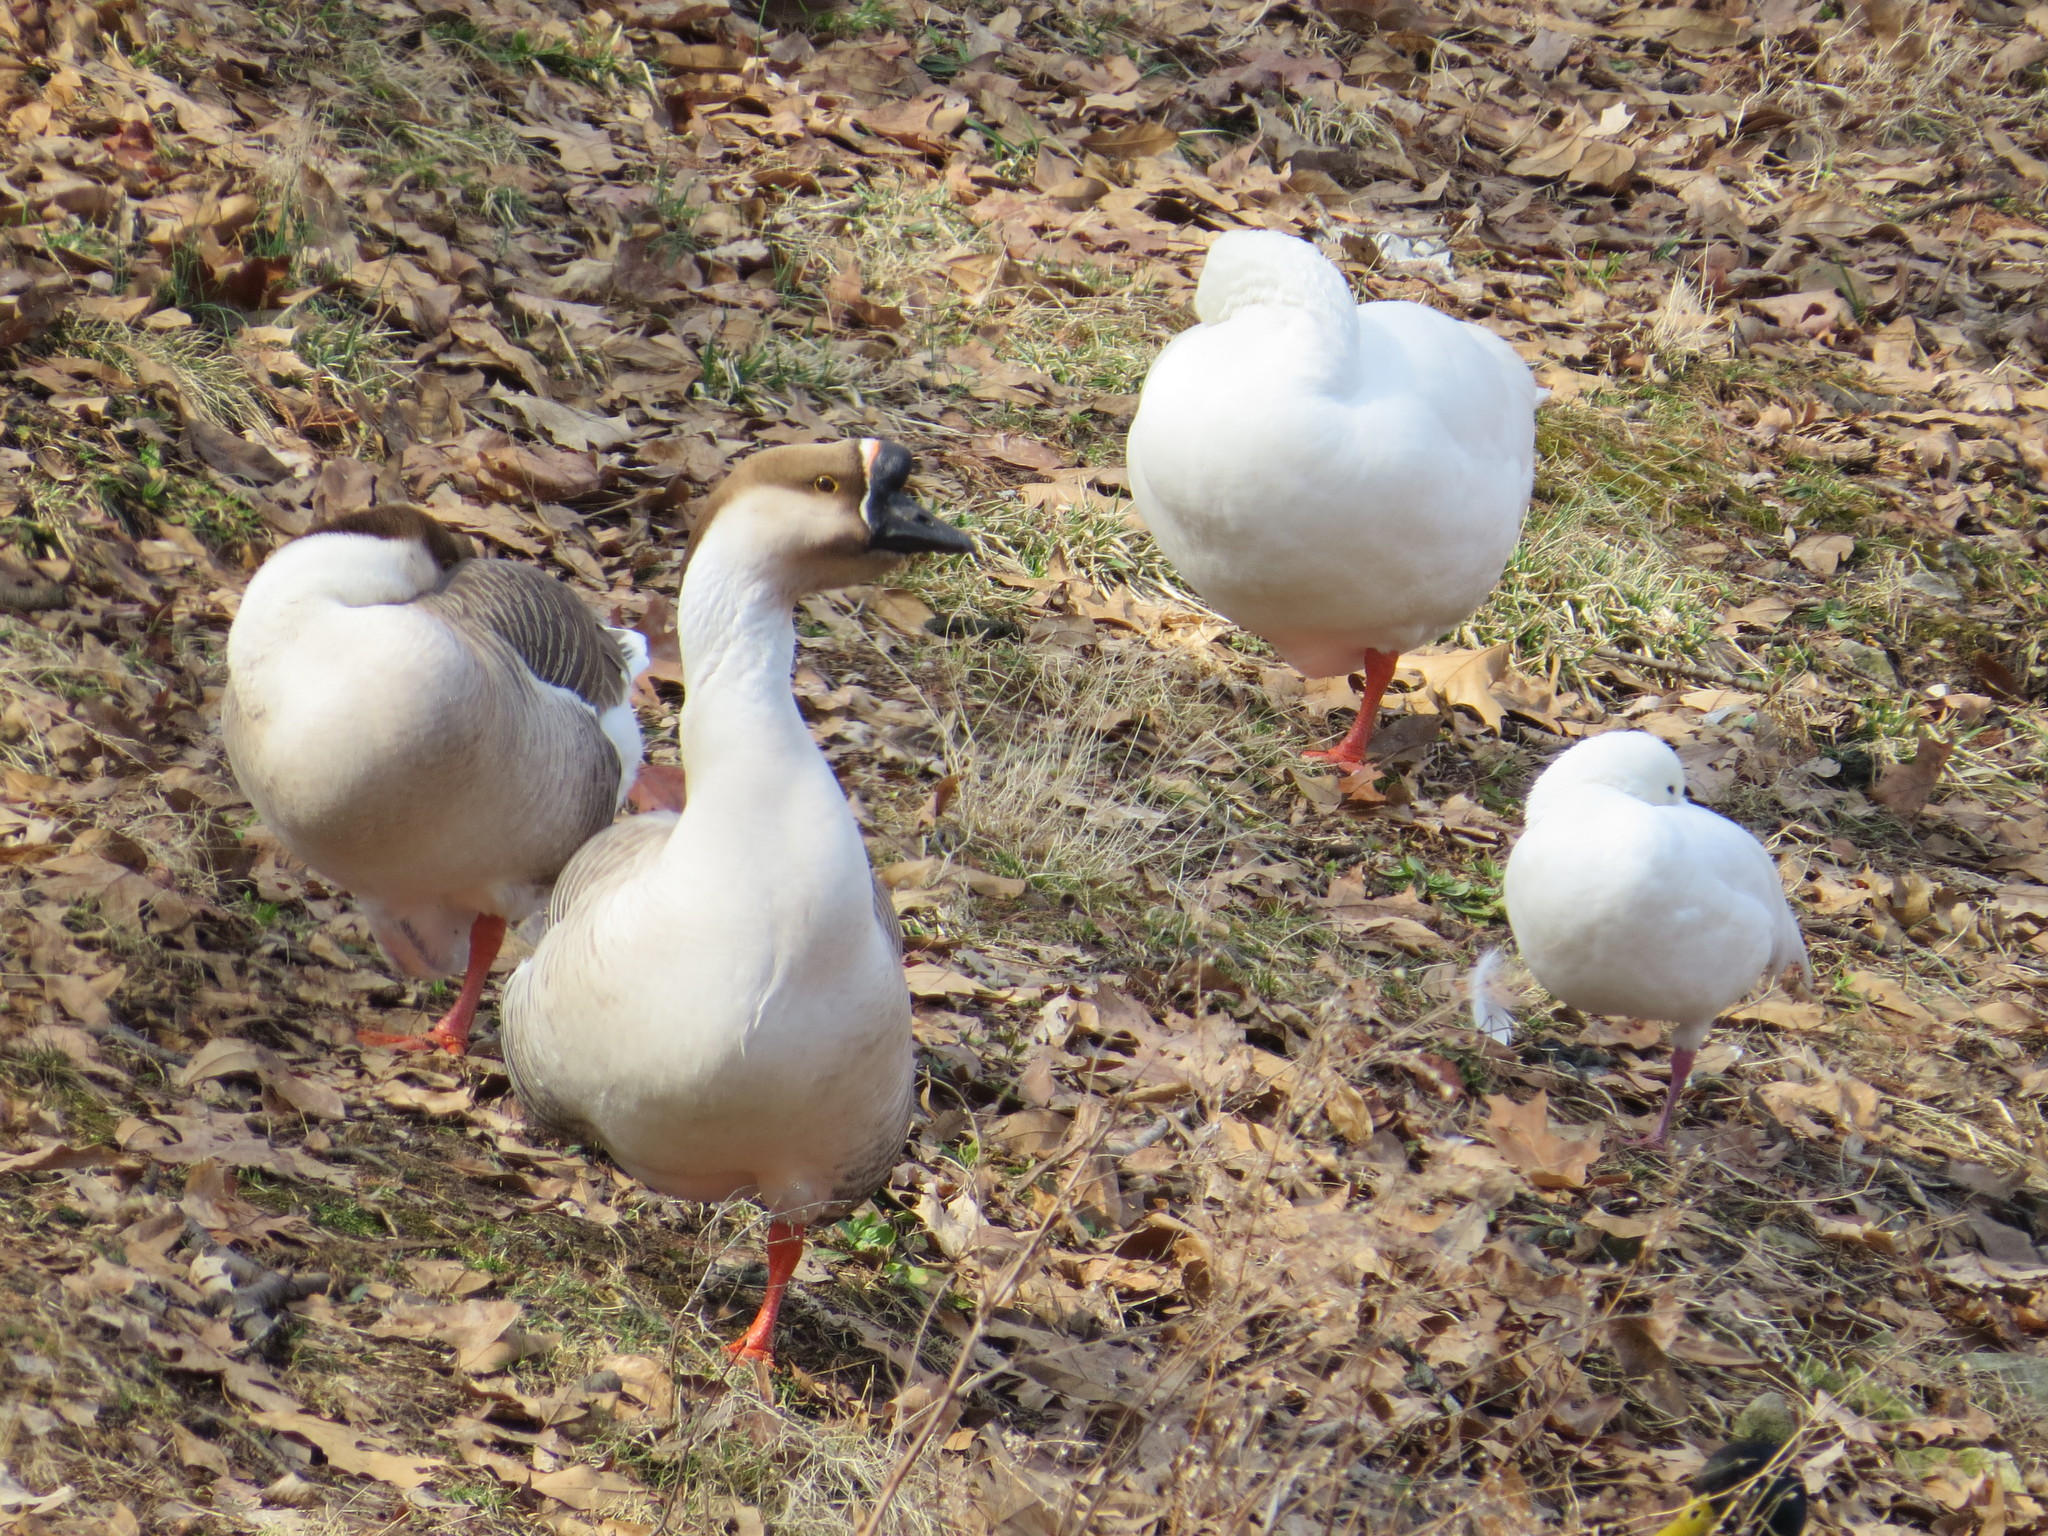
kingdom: Animalia
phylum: Chordata
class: Aves
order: Anseriformes
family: Anatidae
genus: Anser
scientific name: Anser cygnoides
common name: Swan goose
